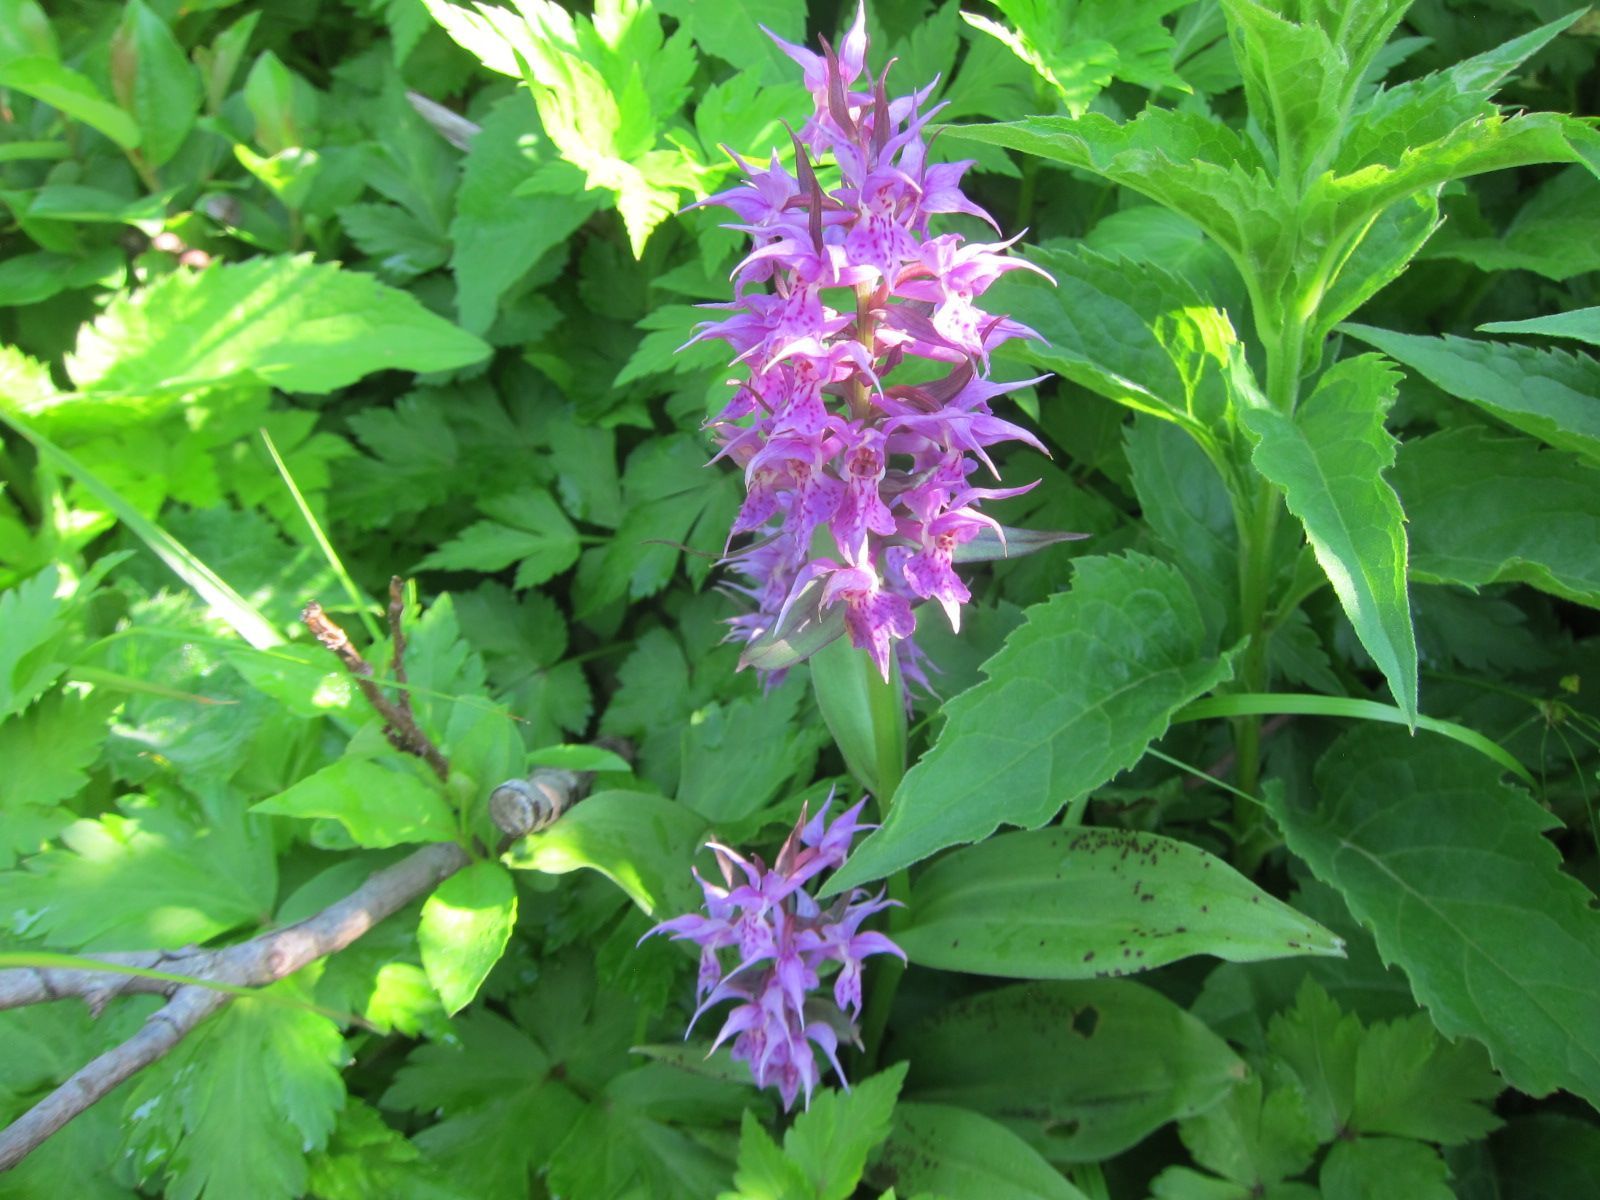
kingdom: Plantae
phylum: Tracheophyta
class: Liliopsida
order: Asparagales
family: Orchidaceae
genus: Dactylorhiza
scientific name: Dactylorhiza aristata
